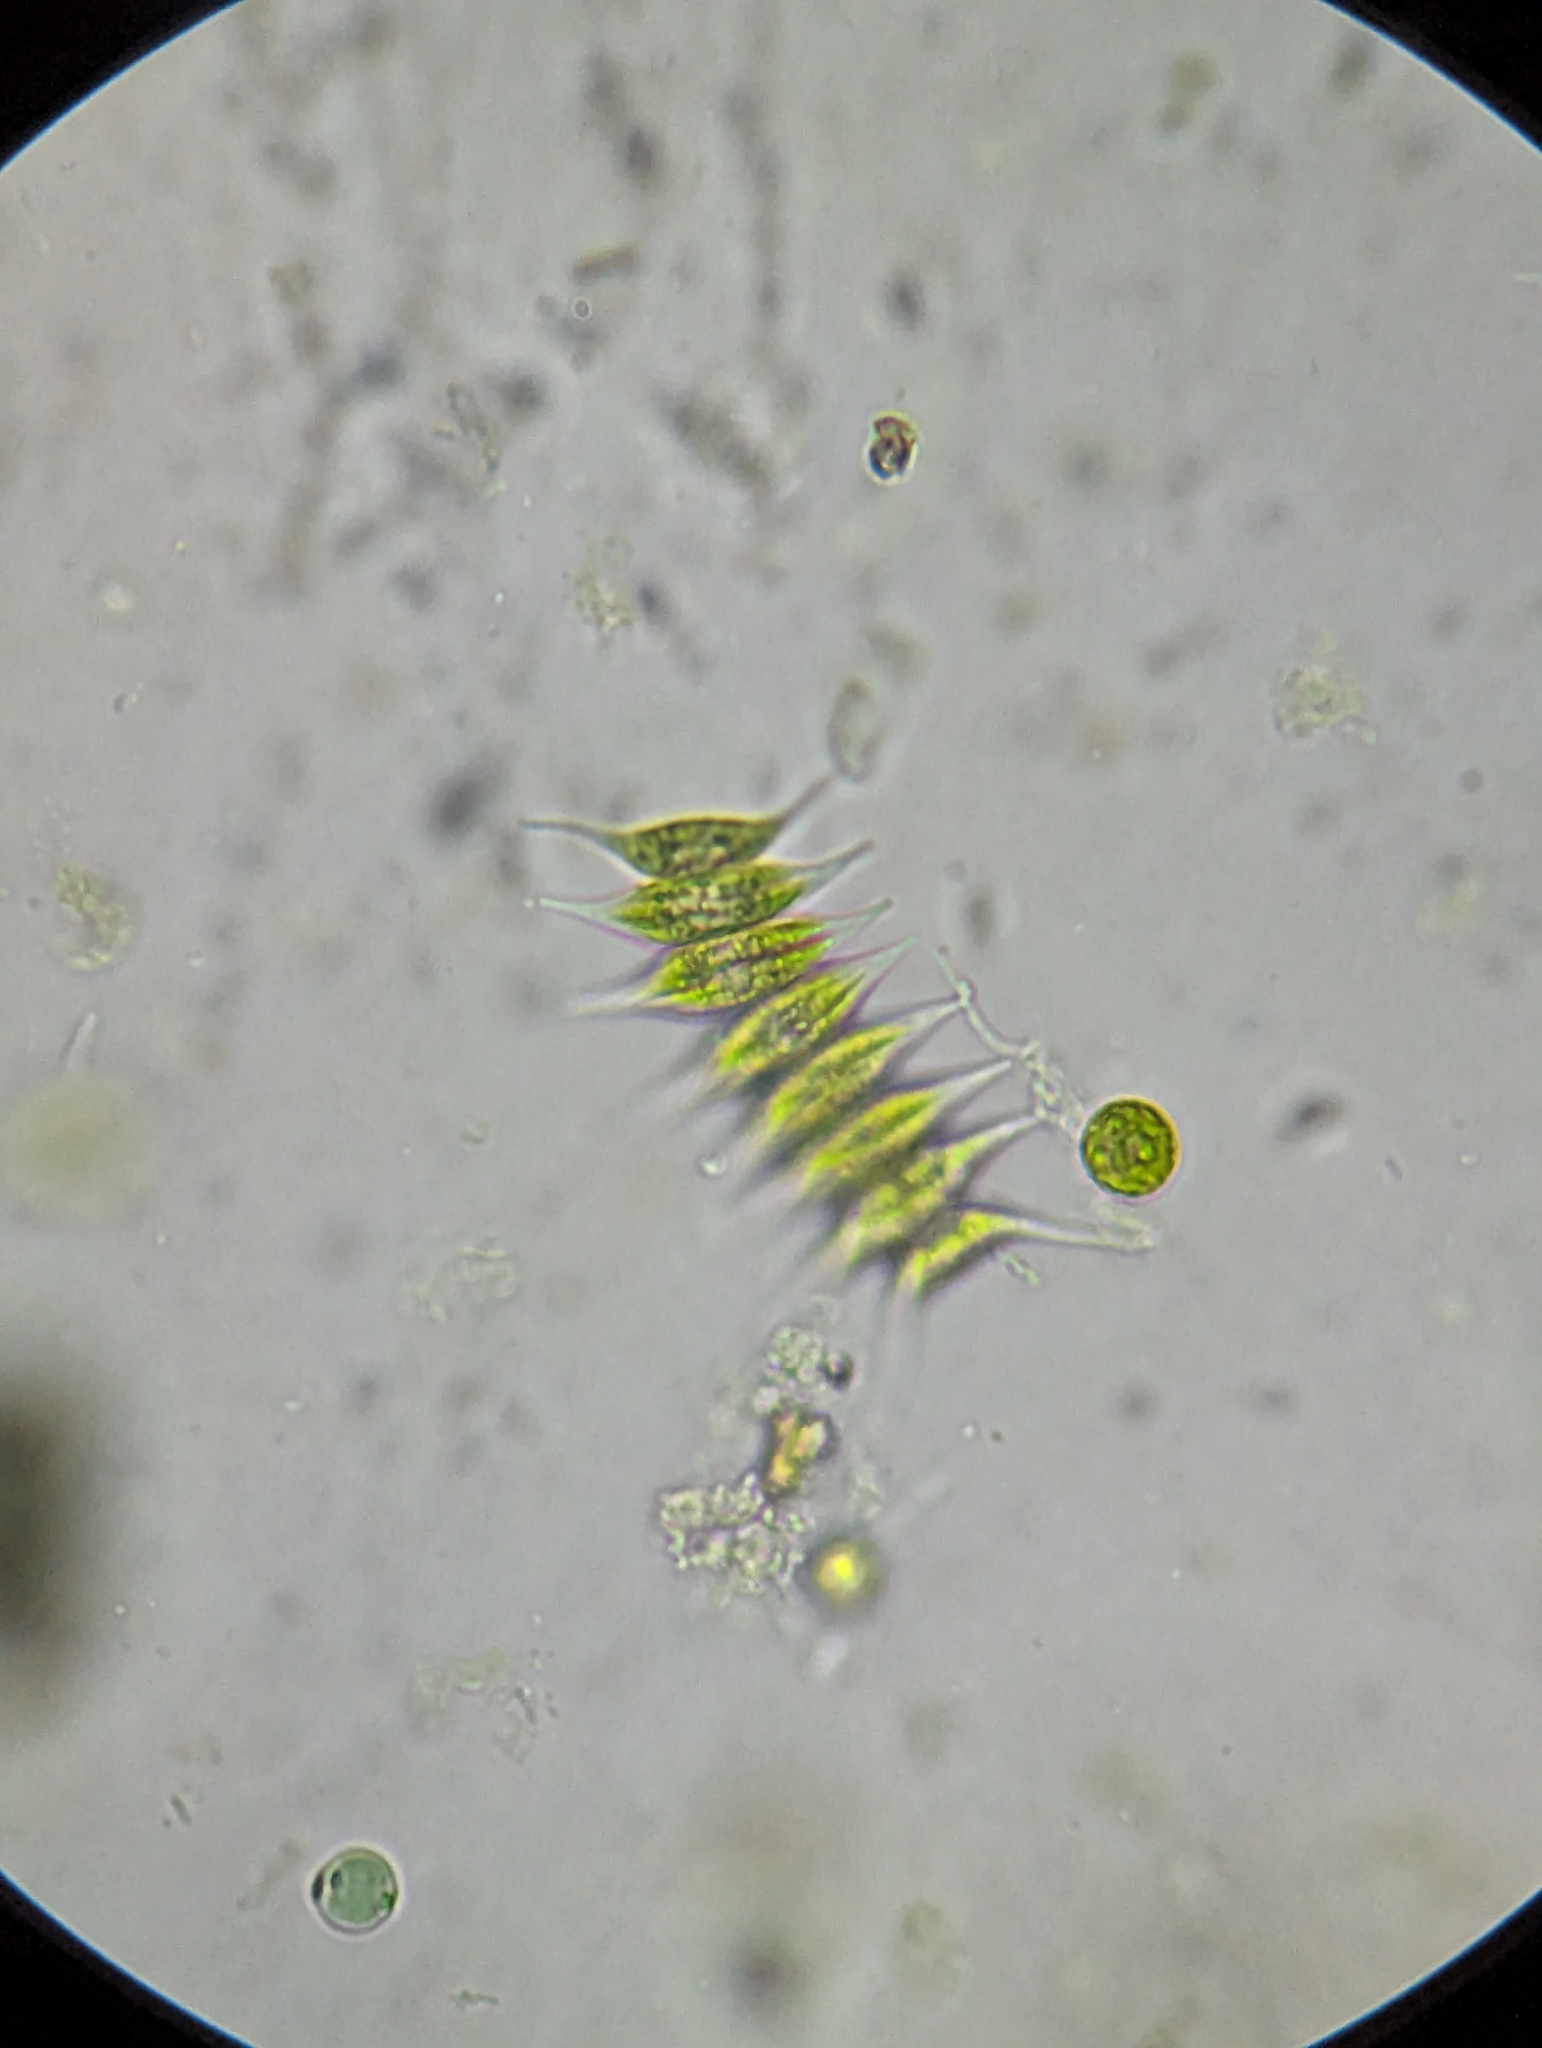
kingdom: Plantae
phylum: Chlorophyta
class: Chlorophyceae
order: Sphaeropleales
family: Scenedesmaceae
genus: Tetradesmus
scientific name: Tetradesmus dimorphus
